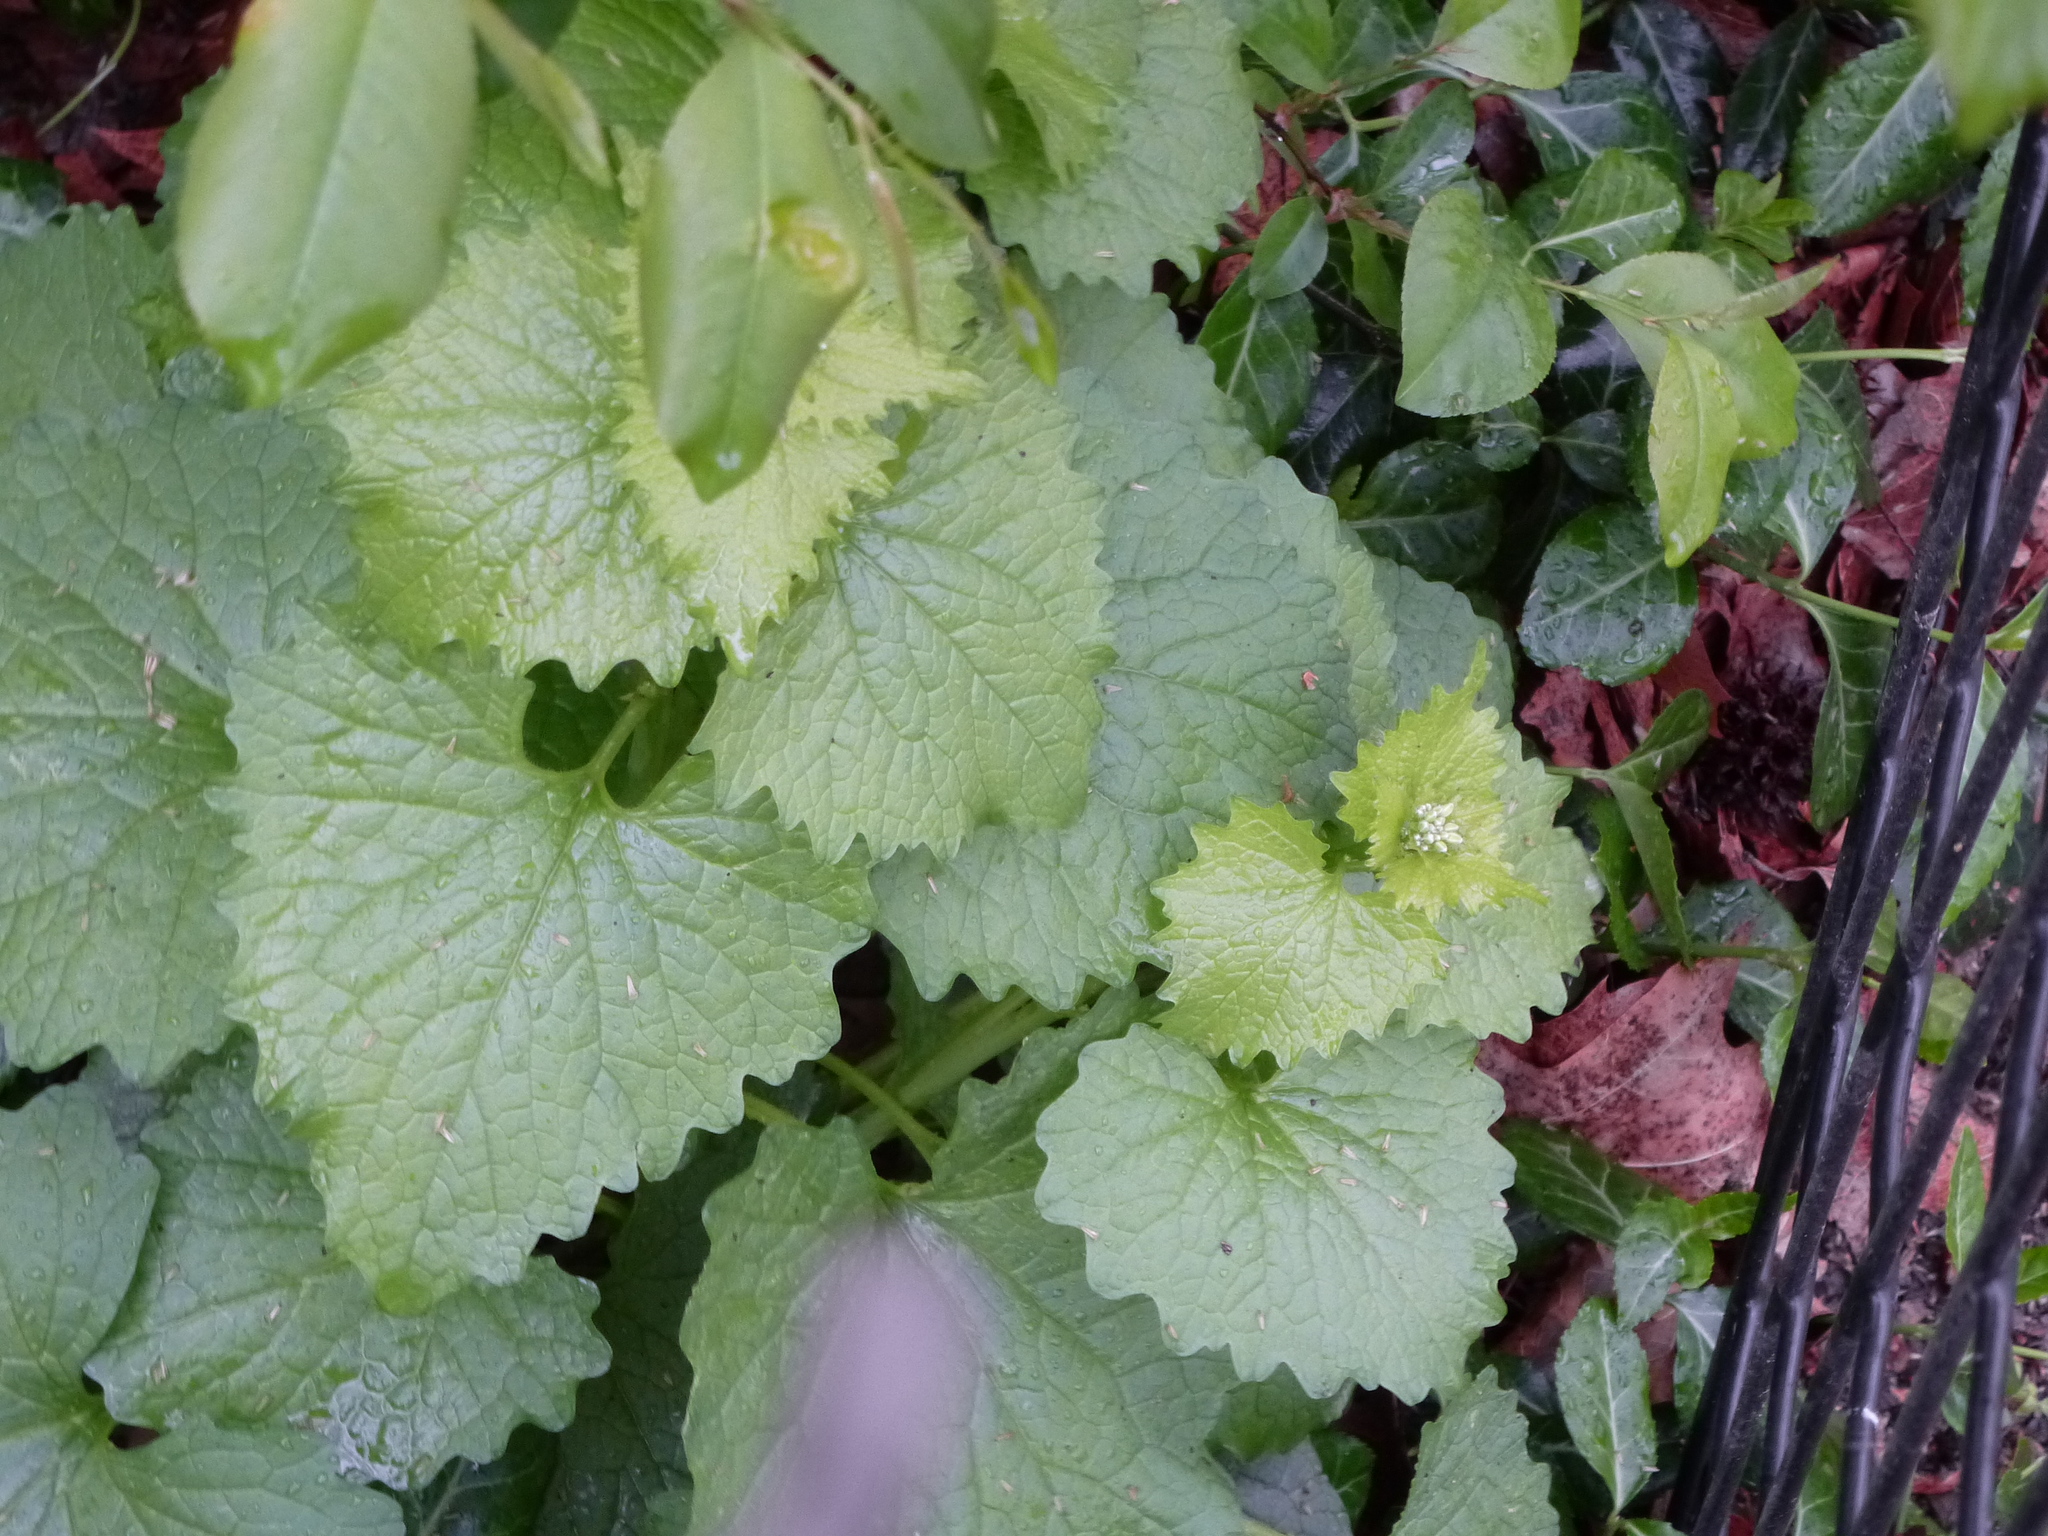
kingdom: Plantae
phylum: Tracheophyta
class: Magnoliopsida
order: Brassicales
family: Brassicaceae
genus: Alliaria
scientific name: Alliaria petiolata
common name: Garlic mustard
